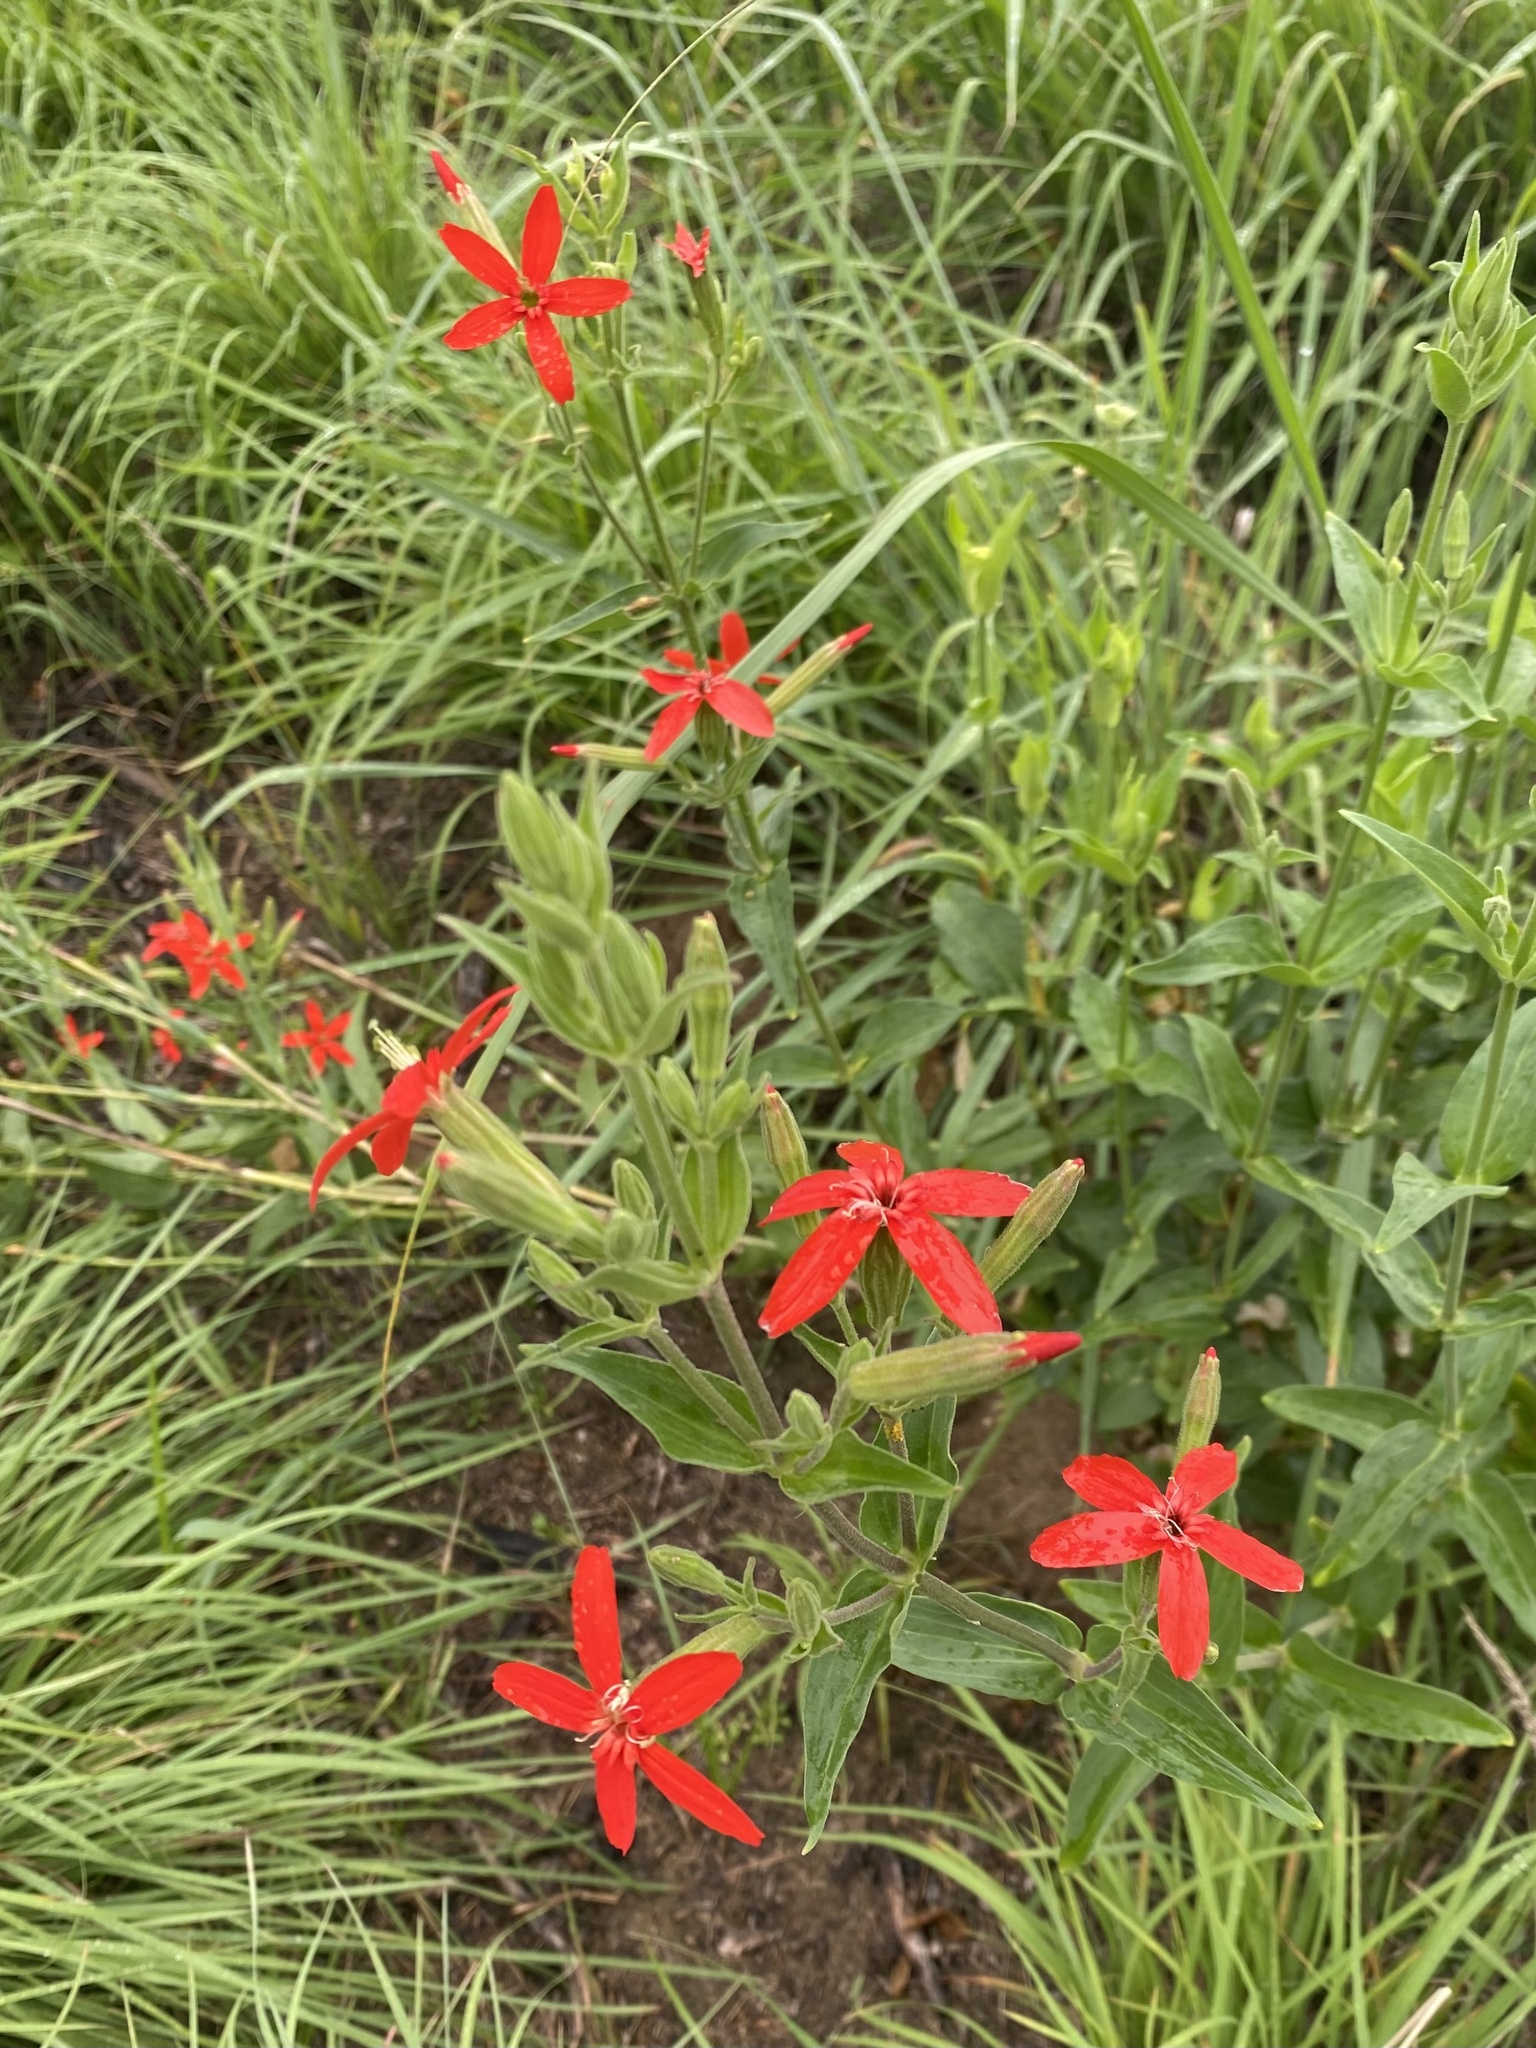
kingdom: Plantae
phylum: Tracheophyta
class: Magnoliopsida
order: Caryophyllales
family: Caryophyllaceae
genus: Silene
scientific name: Silene regia
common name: Royal catchfly
